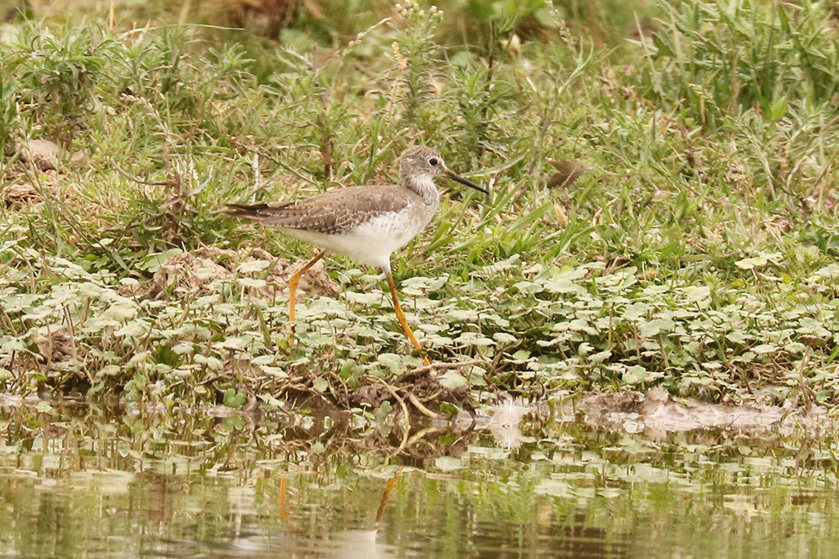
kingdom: Animalia
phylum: Chordata
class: Aves
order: Charadriiformes
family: Scolopacidae
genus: Tringa
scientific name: Tringa flavipes
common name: Lesser yellowlegs
